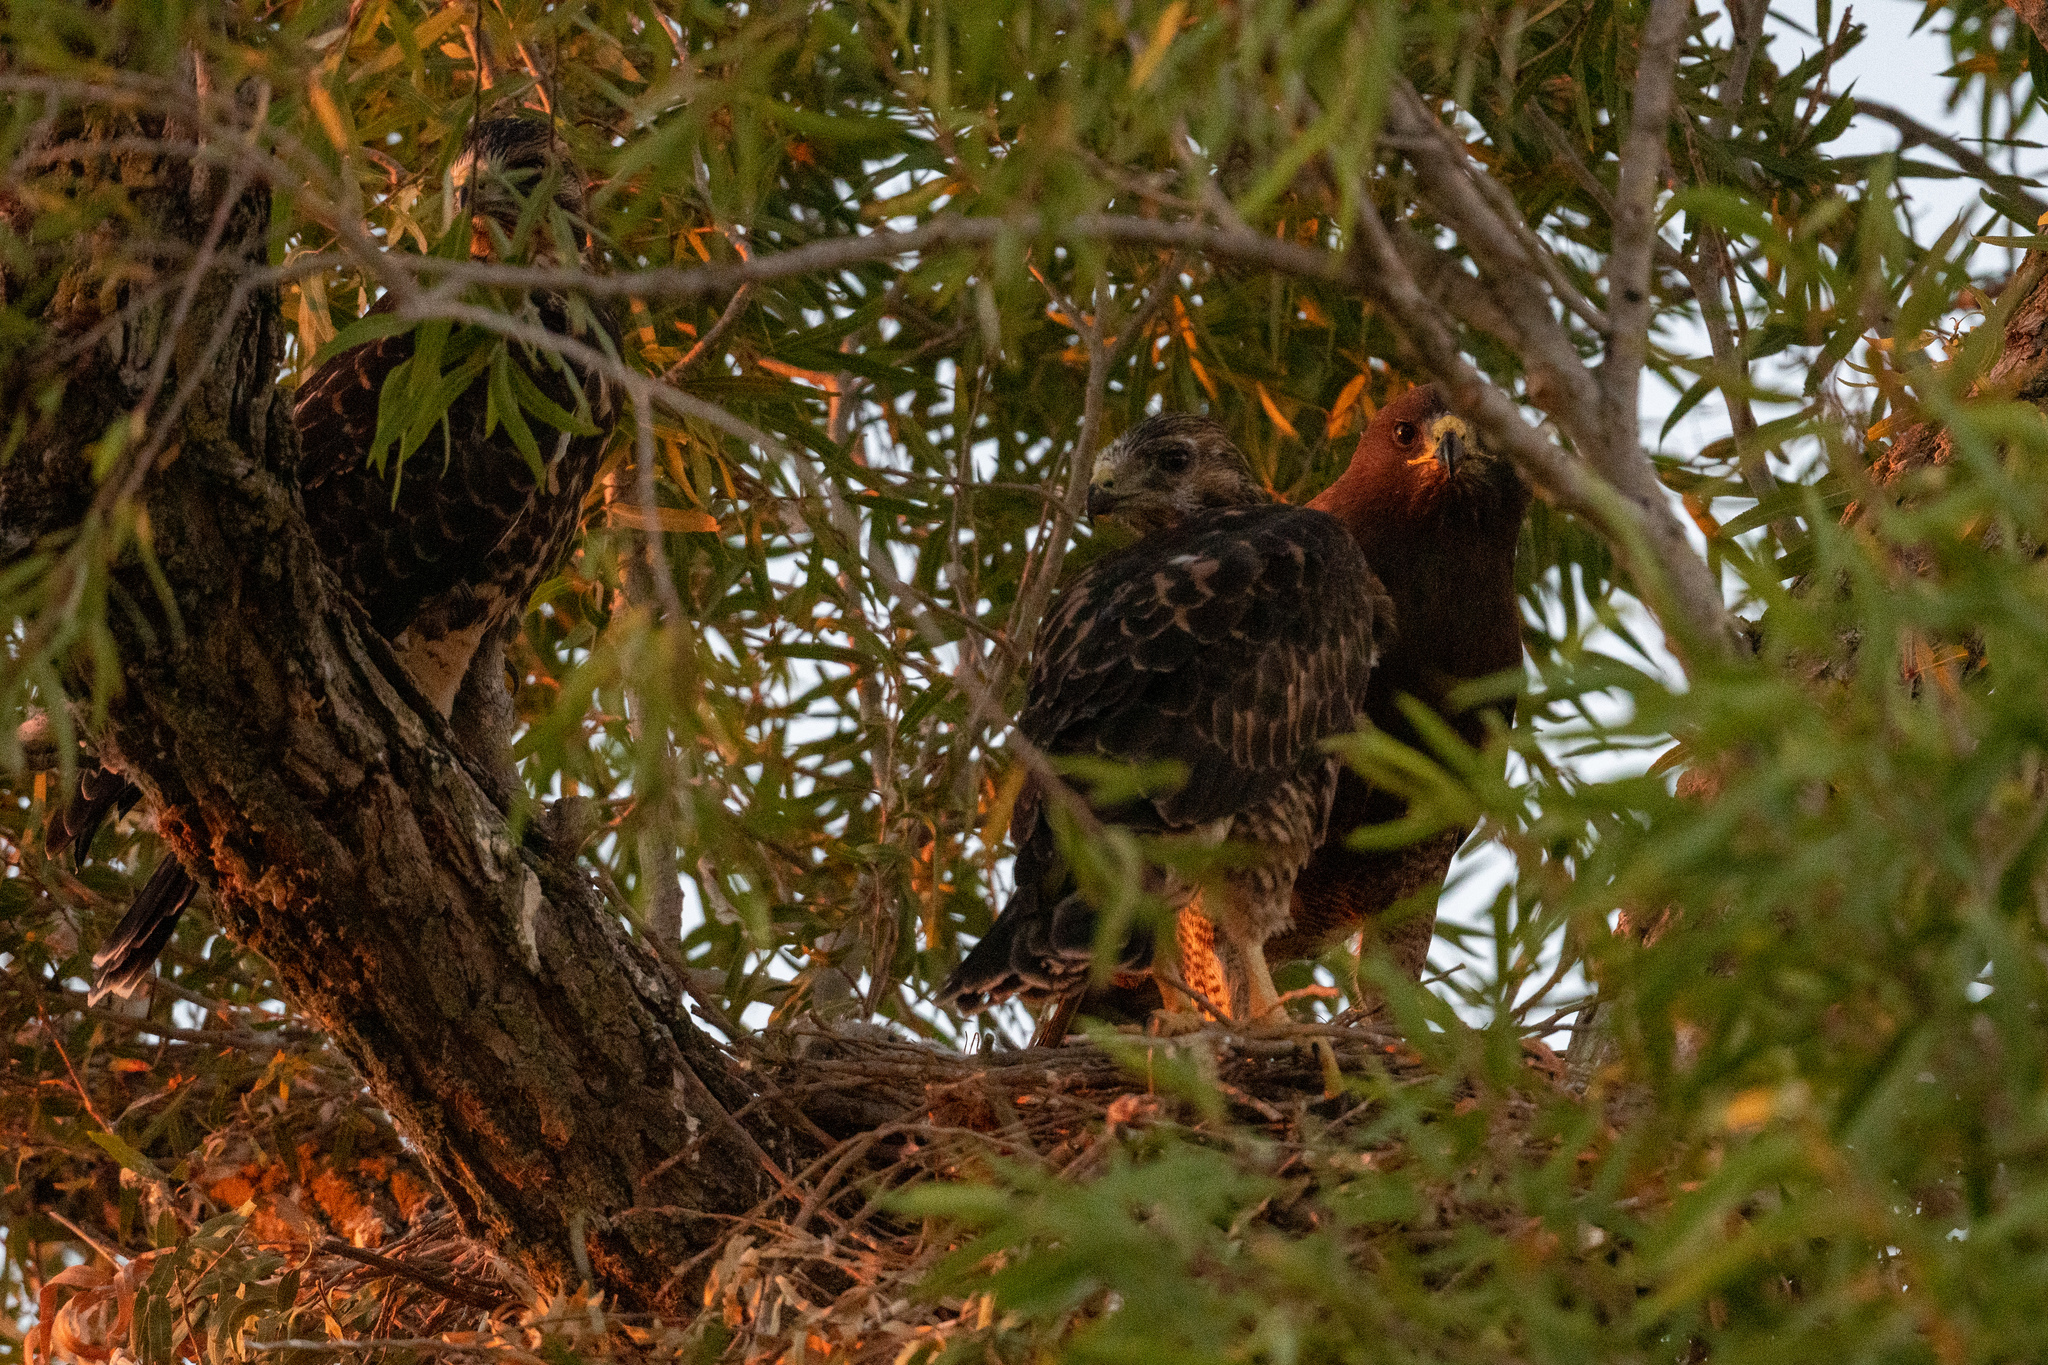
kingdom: Animalia
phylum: Chordata
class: Aves
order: Accipitriformes
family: Accipitridae
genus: Buteo
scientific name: Buteo swainsoni
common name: Swainson's hawk
